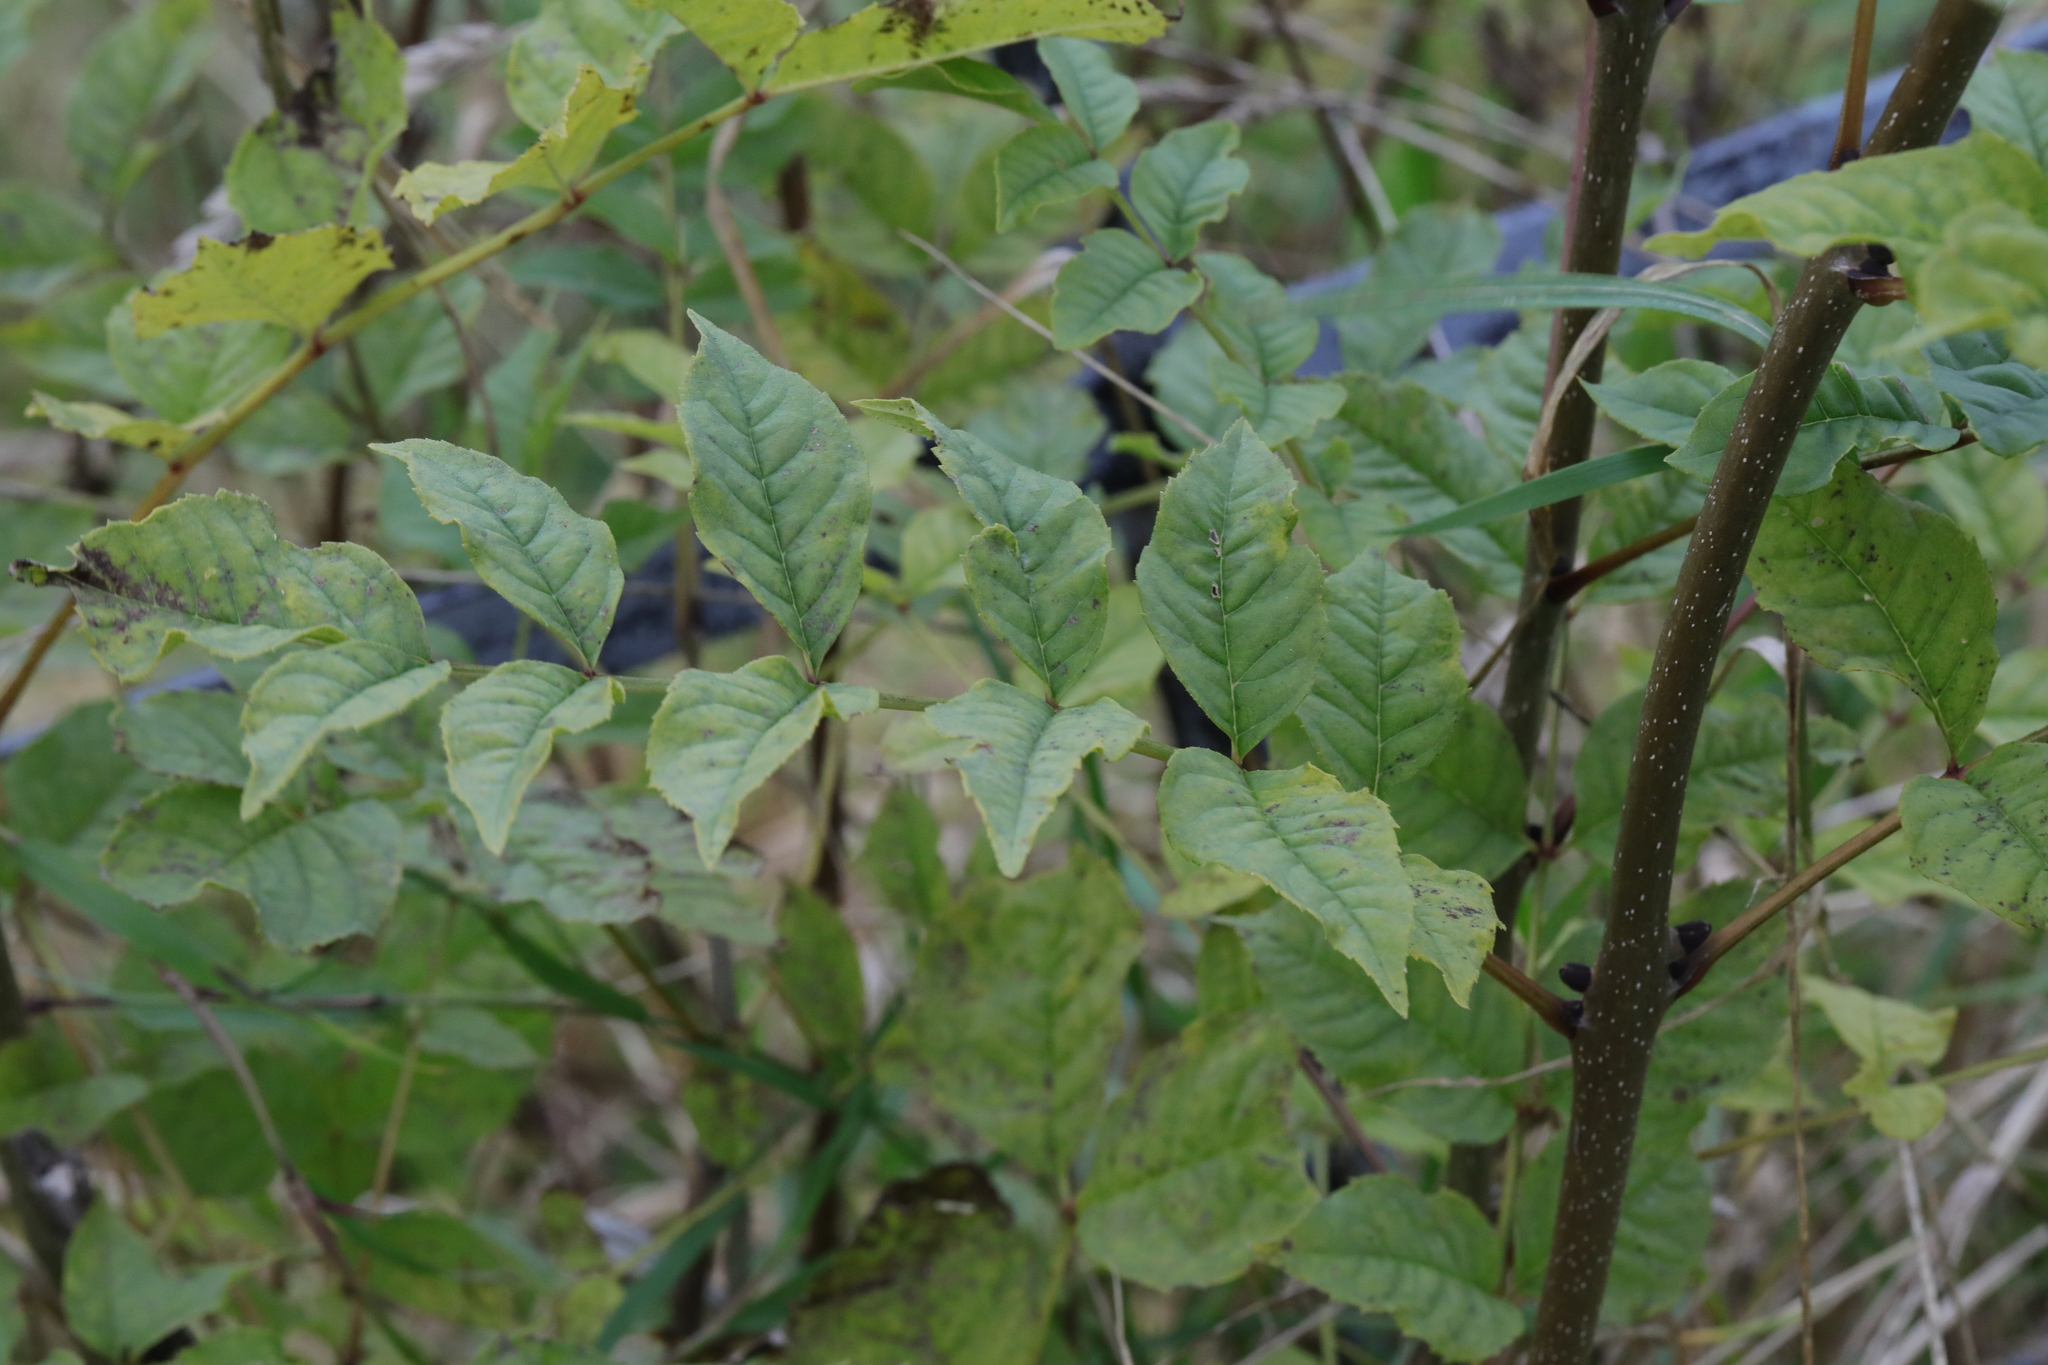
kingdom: Plantae
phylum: Tracheophyta
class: Magnoliopsida
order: Lamiales
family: Oleaceae
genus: Fraxinus
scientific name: Fraxinus excelsior
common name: European ash
